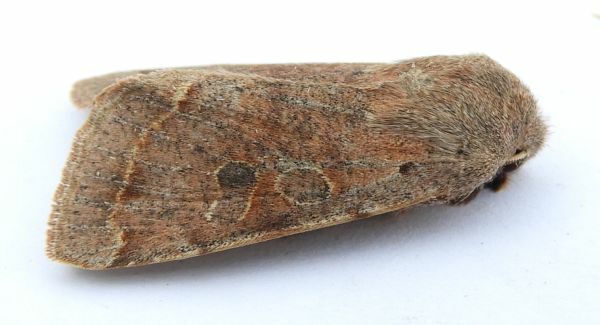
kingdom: Animalia
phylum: Arthropoda
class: Insecta
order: Lepidoptera
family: Noctuidae
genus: Orthosia
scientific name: Orthosia hibisci
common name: Green fruitworm
